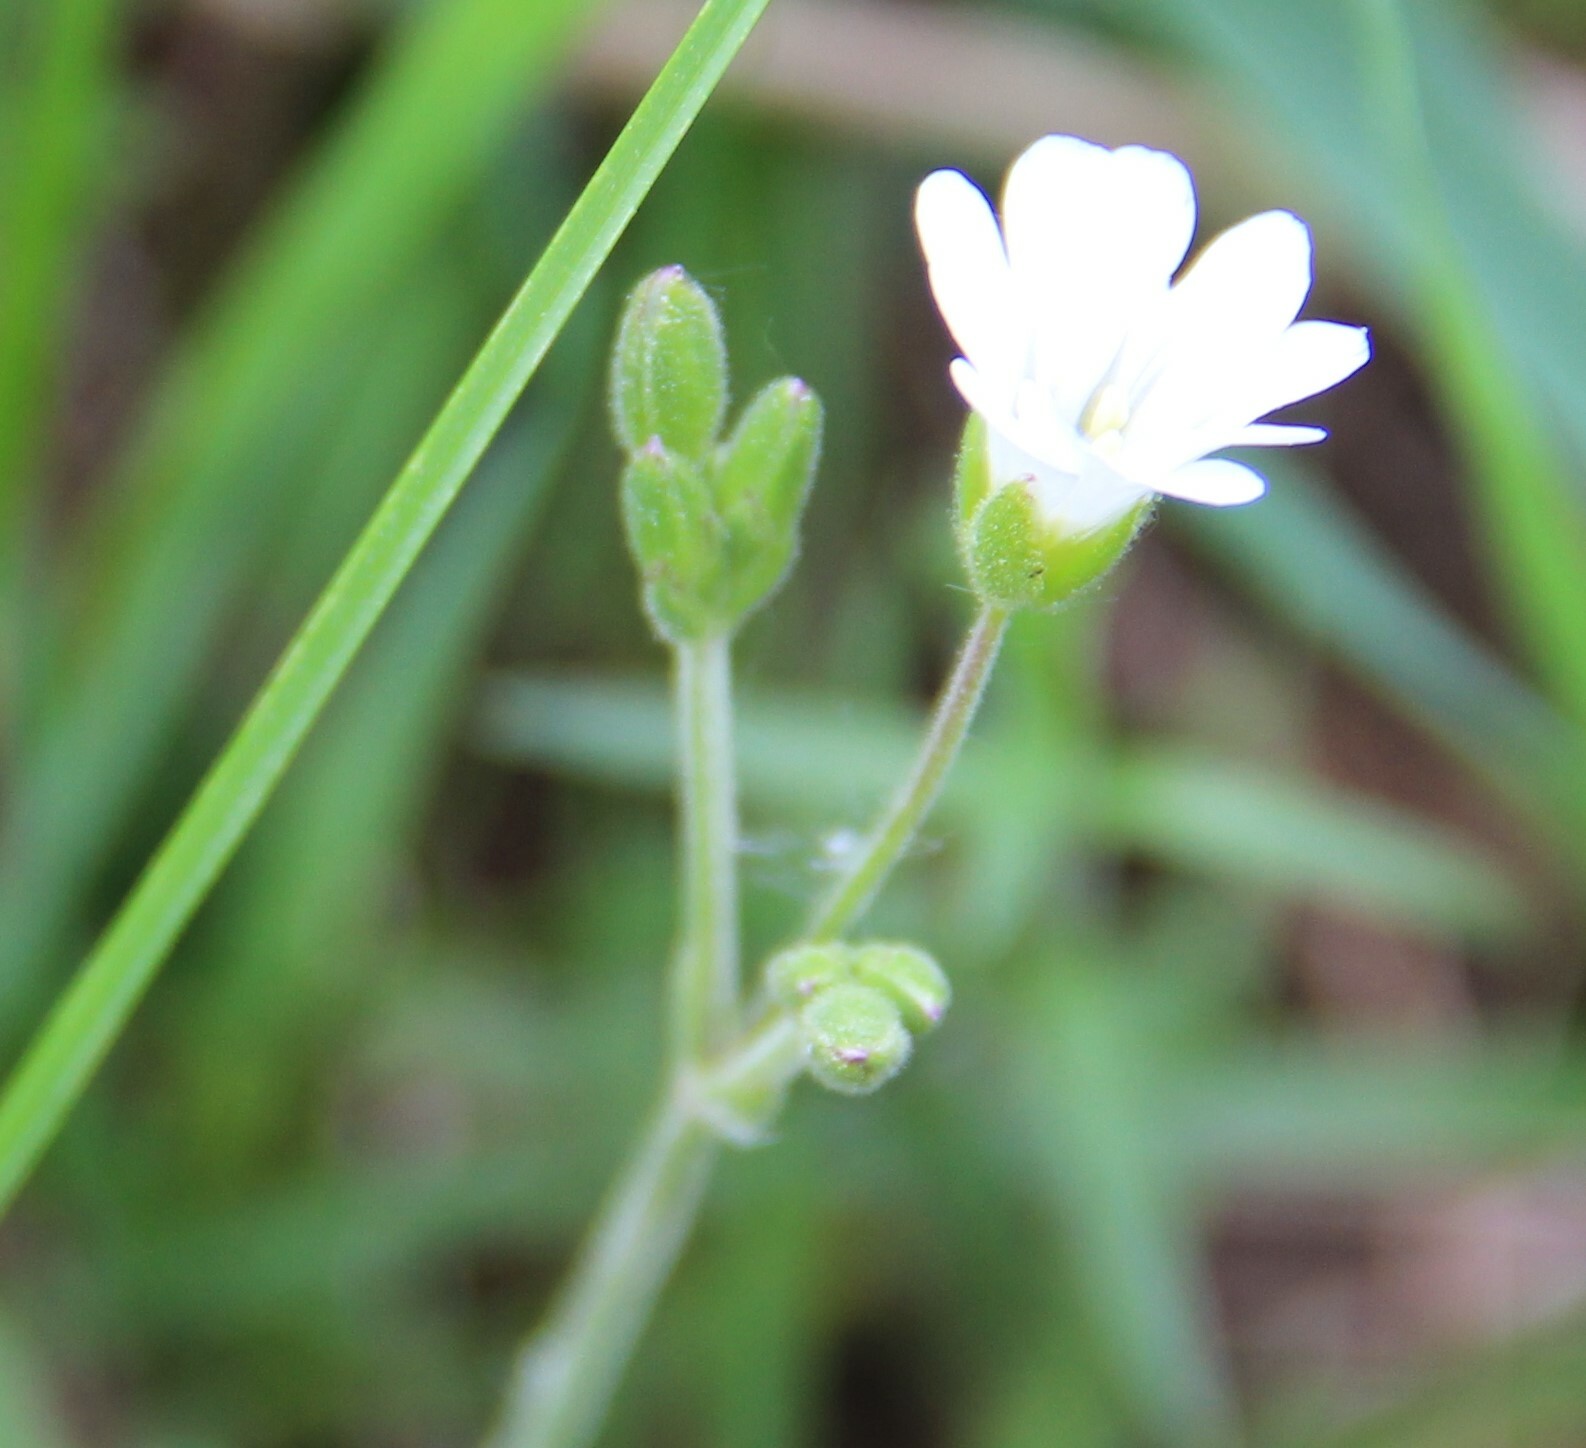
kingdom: Plantae
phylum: Tracheophyta
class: Magnoliopsida
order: Caryophyllales
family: Caryophyllaceae
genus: Cerastium
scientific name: Cerastium arvense
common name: Field mouse-ear
